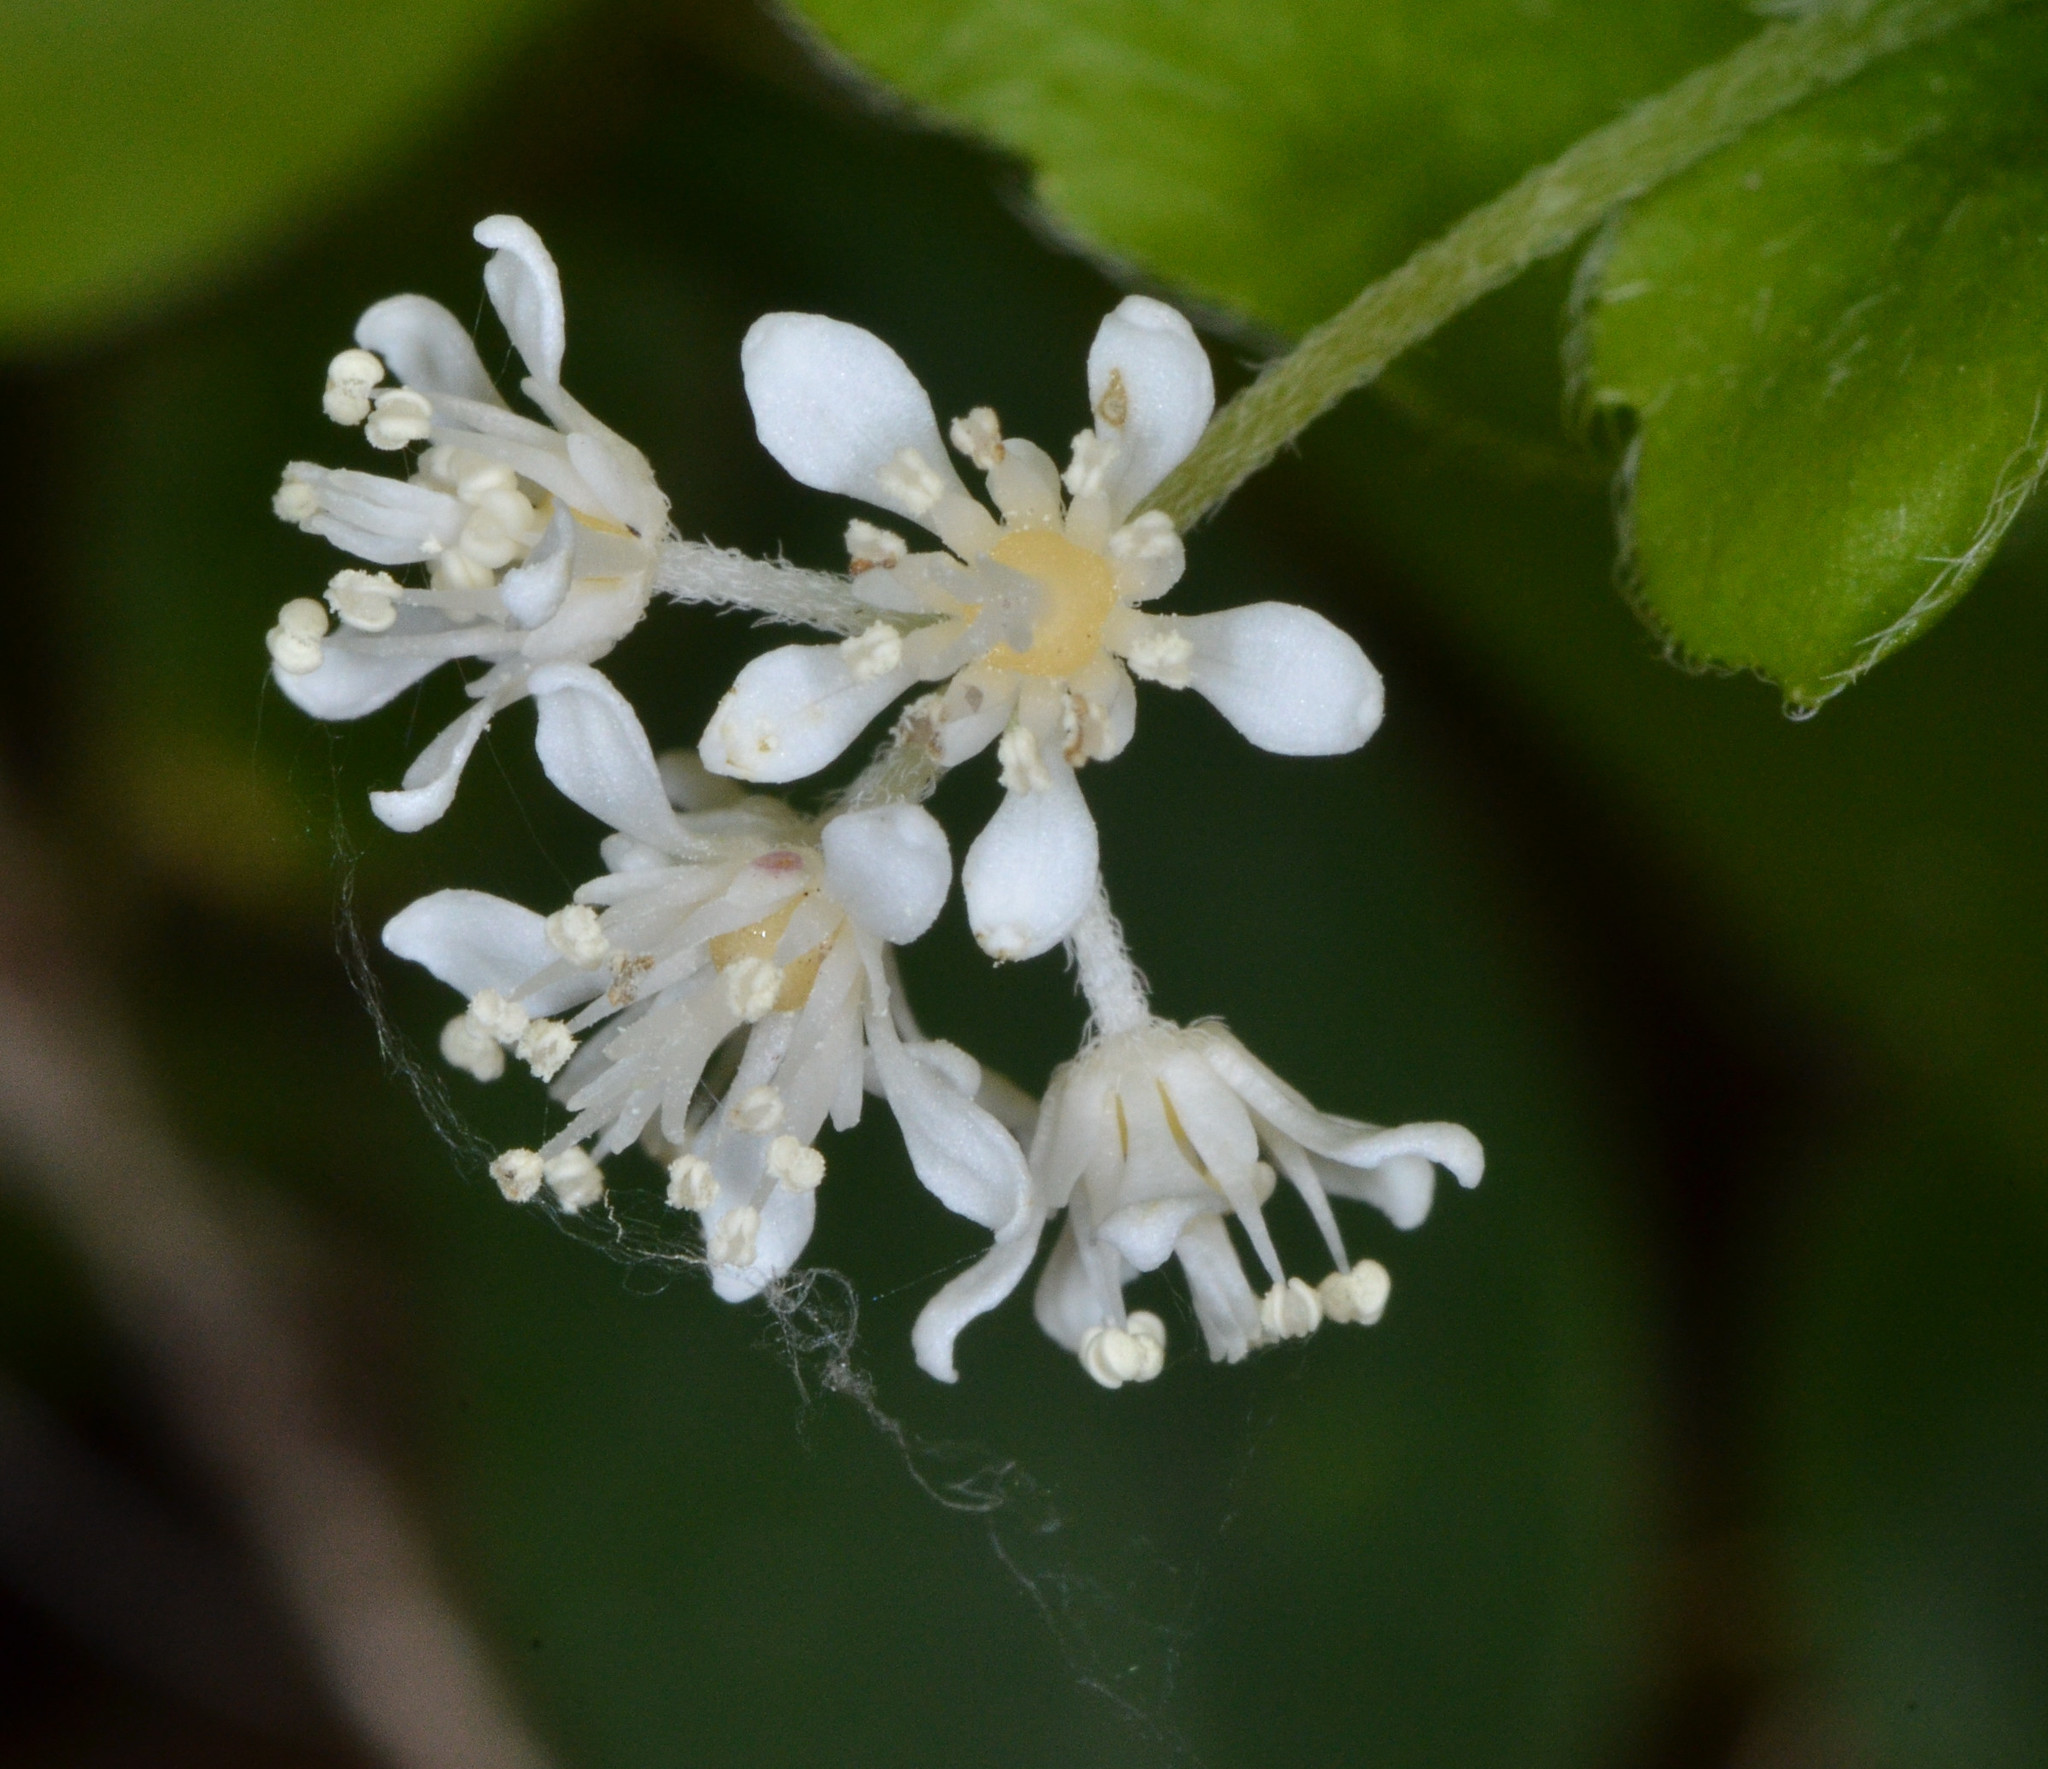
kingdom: Plantae
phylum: Tracheophyta
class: Magnoliopsida
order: Cornales
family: Hydrangeaceae
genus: Whipplea
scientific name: Whipplea modesta
